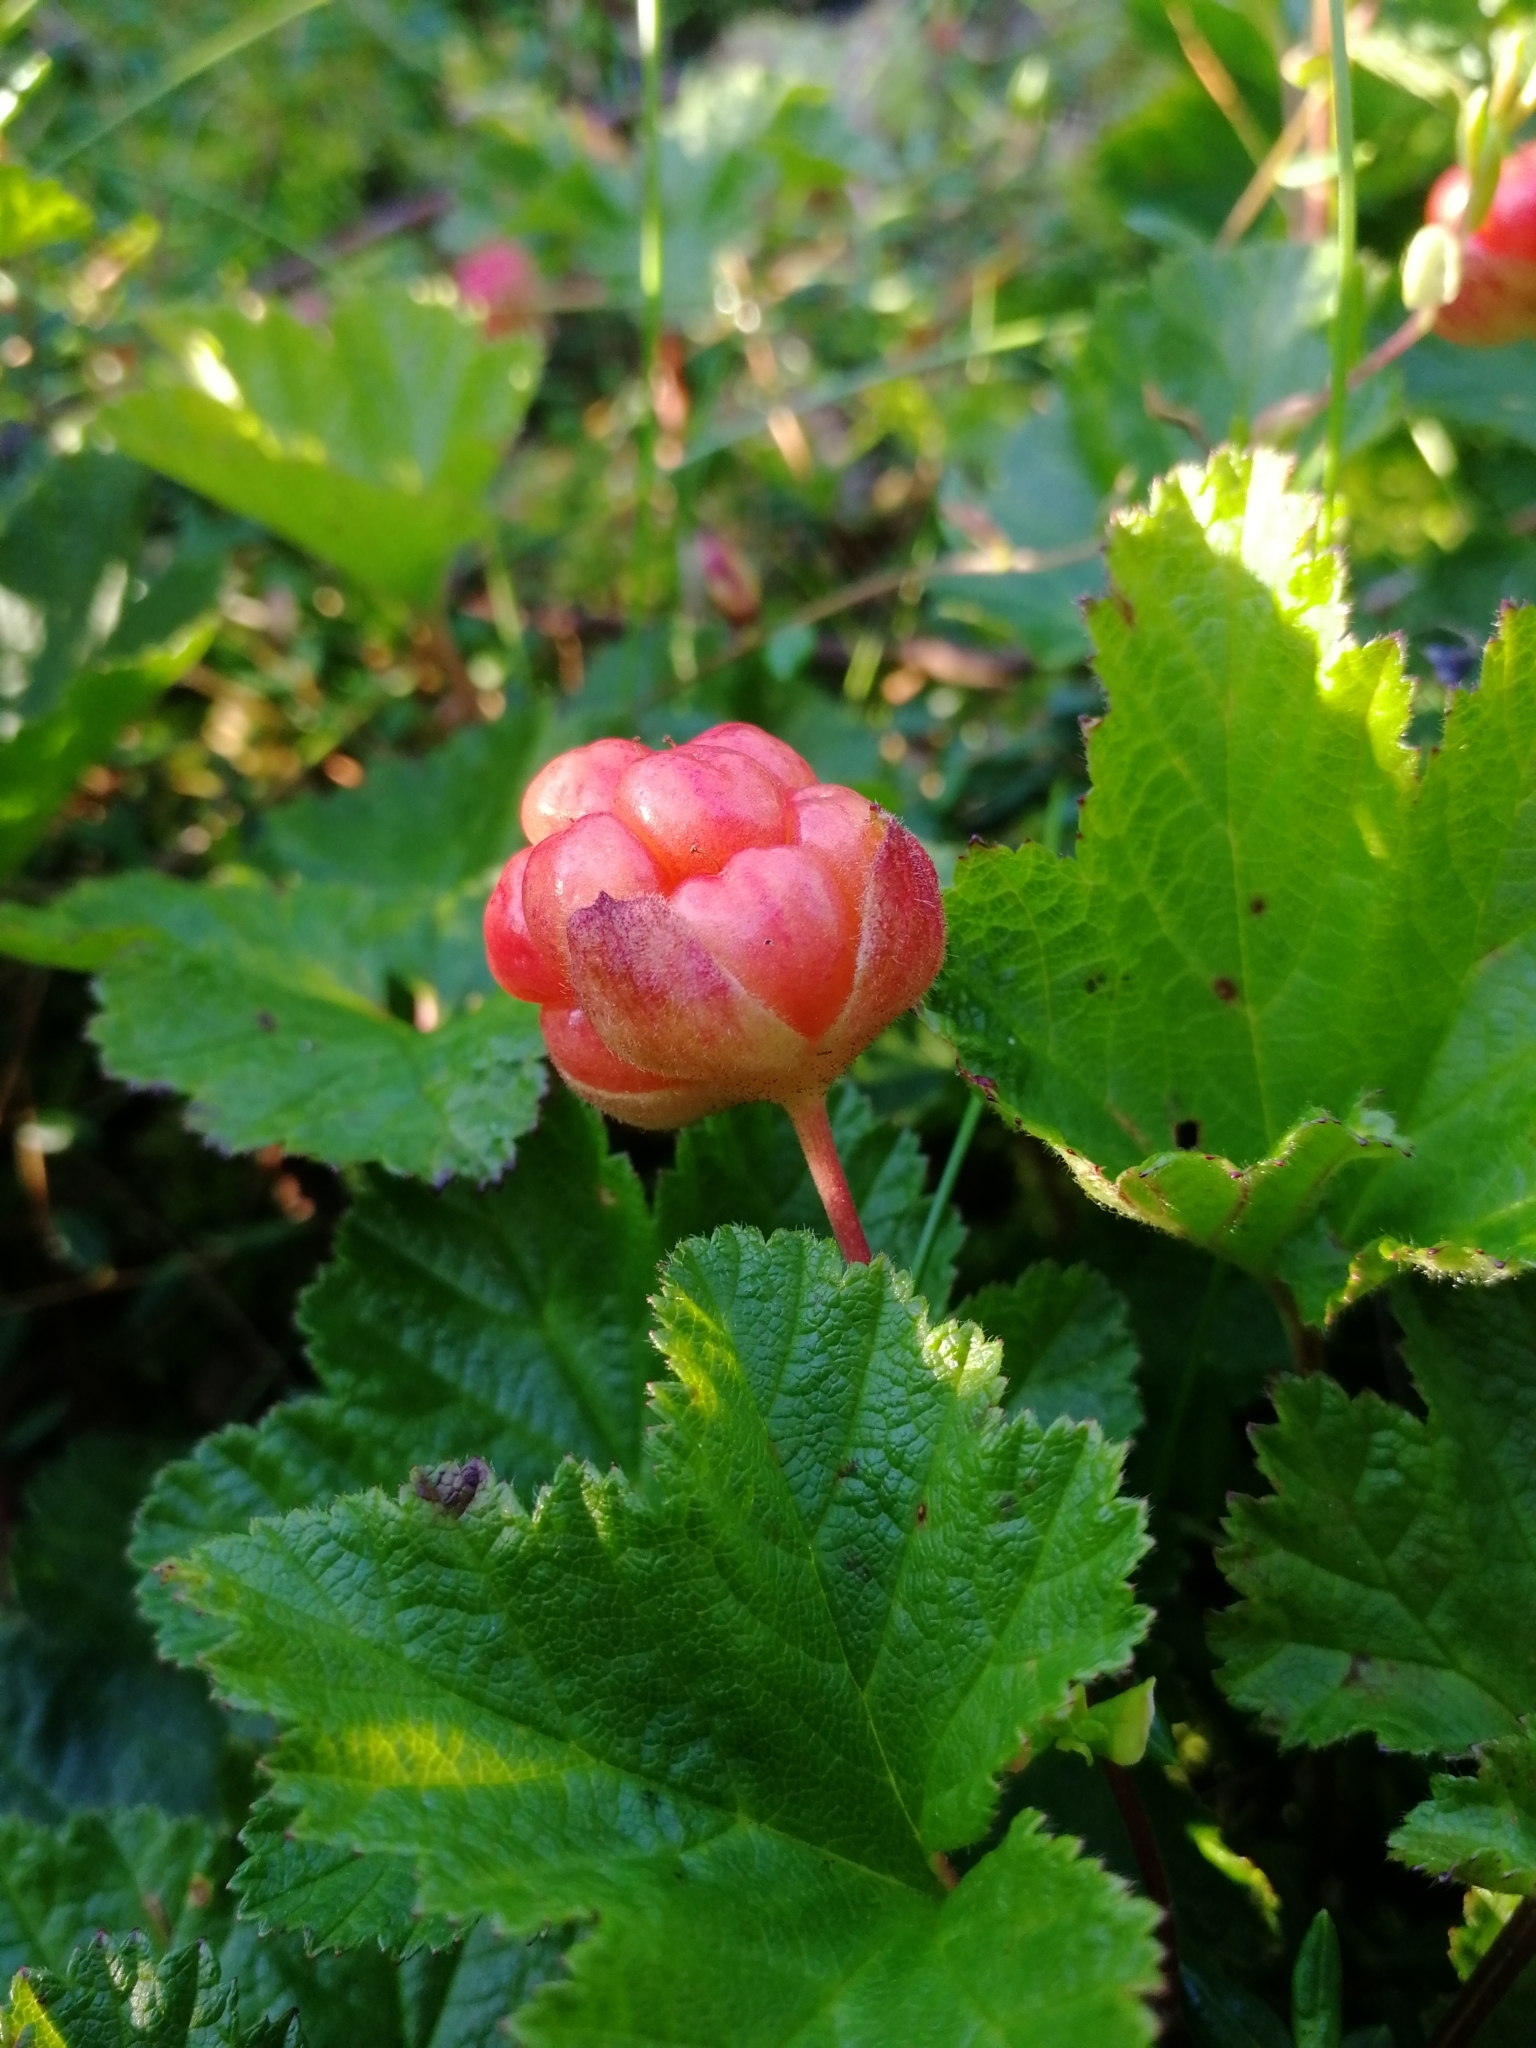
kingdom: Plantae
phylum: Tracheophyta
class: Magnoliopsida
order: Rosales
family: Rosaceae
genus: Rubus
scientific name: Rubus chamaemorus
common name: Cloudberry
